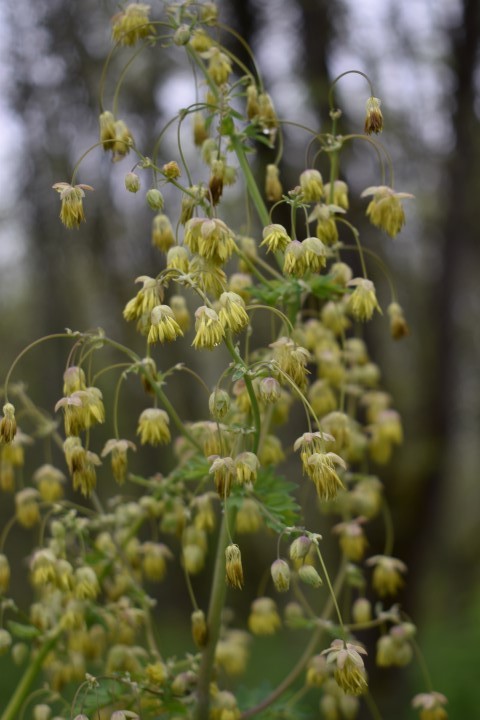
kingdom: Plantae
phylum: Tracheophyta
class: Magnoliopsida
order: Ranunculales
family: Ranunculaceae
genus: Thalictrum
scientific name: Thalictrum fendleri
